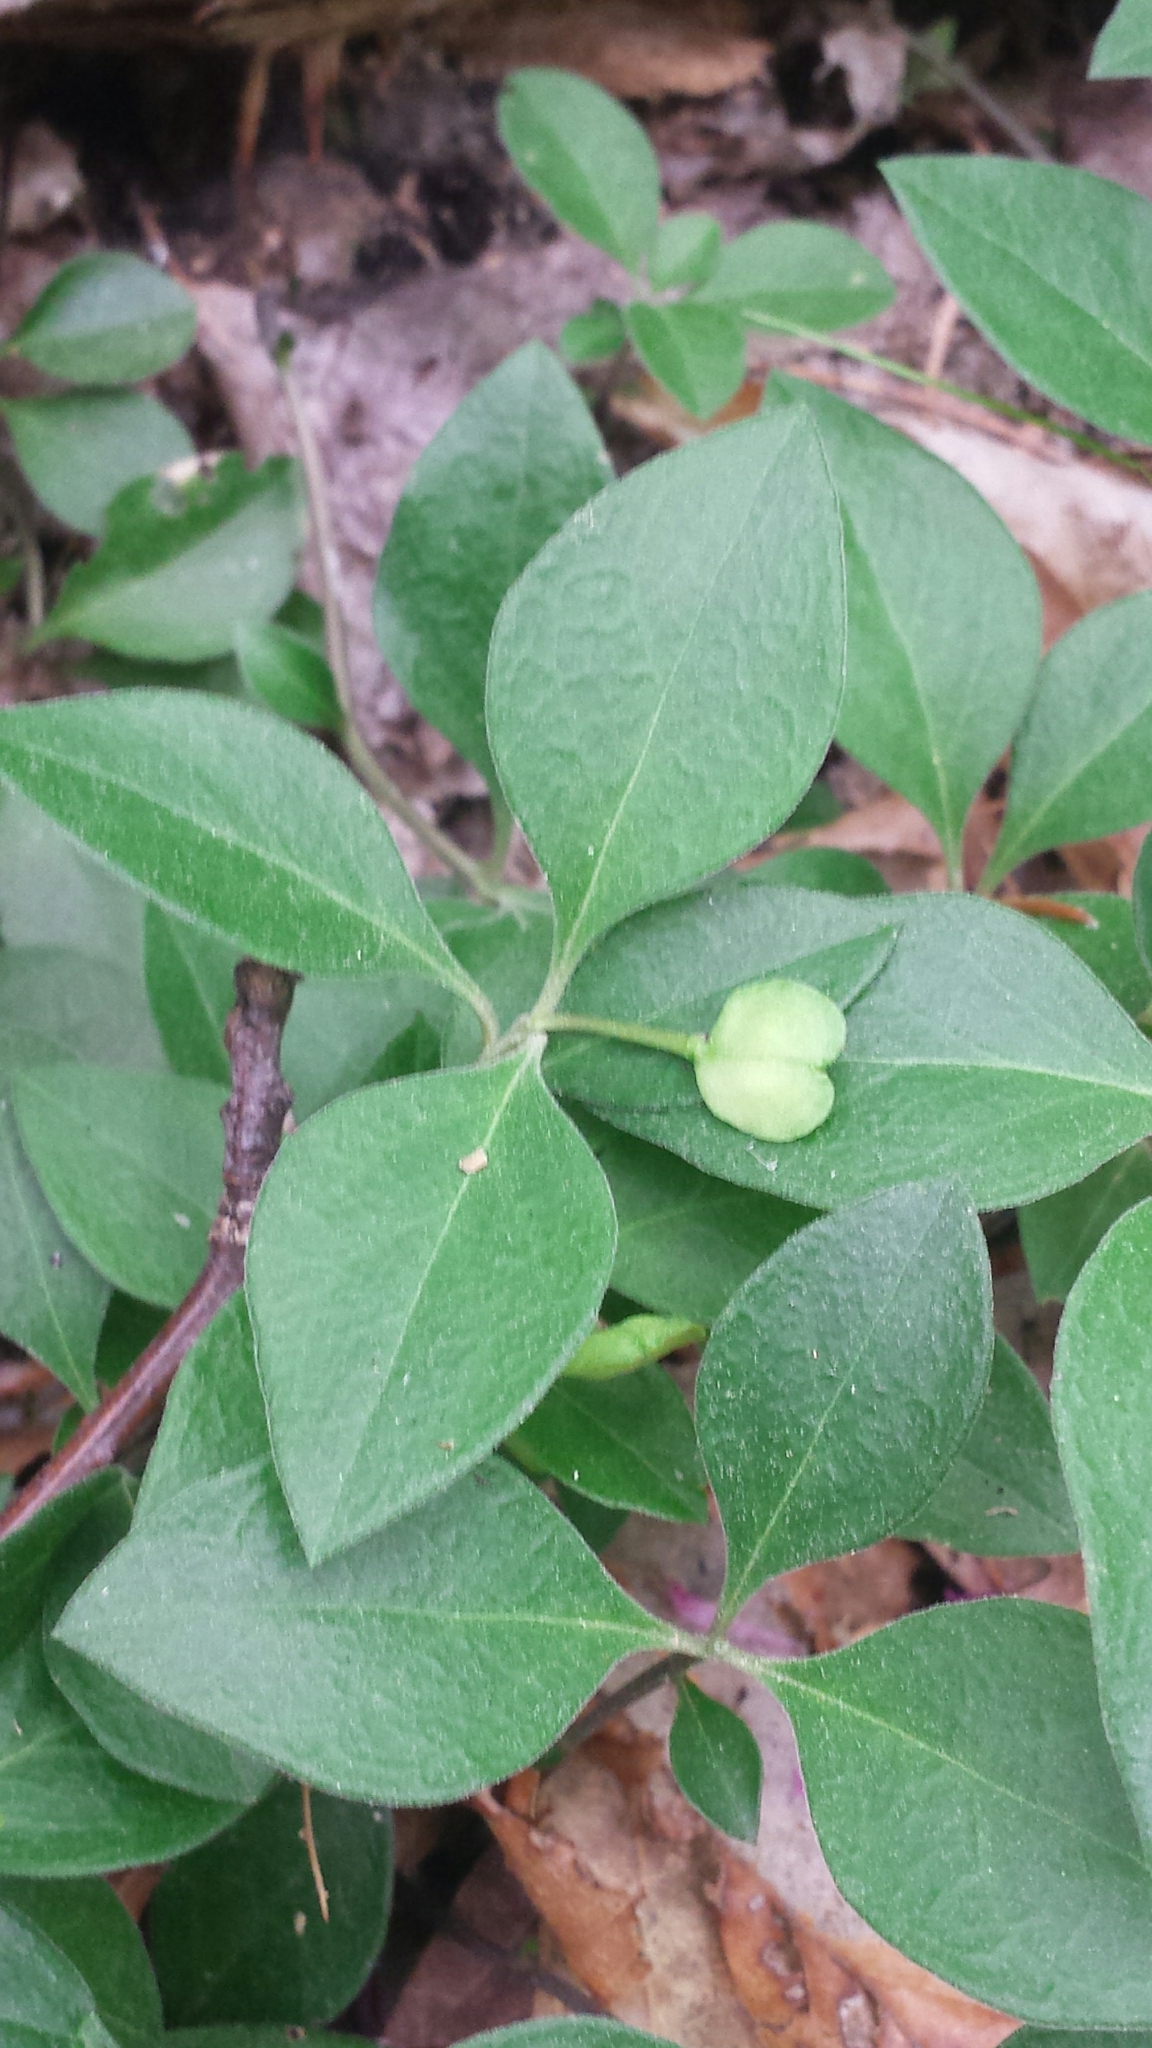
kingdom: Plantae
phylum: Tracheophyta
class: Magnoliopsida
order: Fabales
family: Polygalaceae
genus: Polygaloides
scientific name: Polygaloides paucifolia
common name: Bird-on-the-wing
